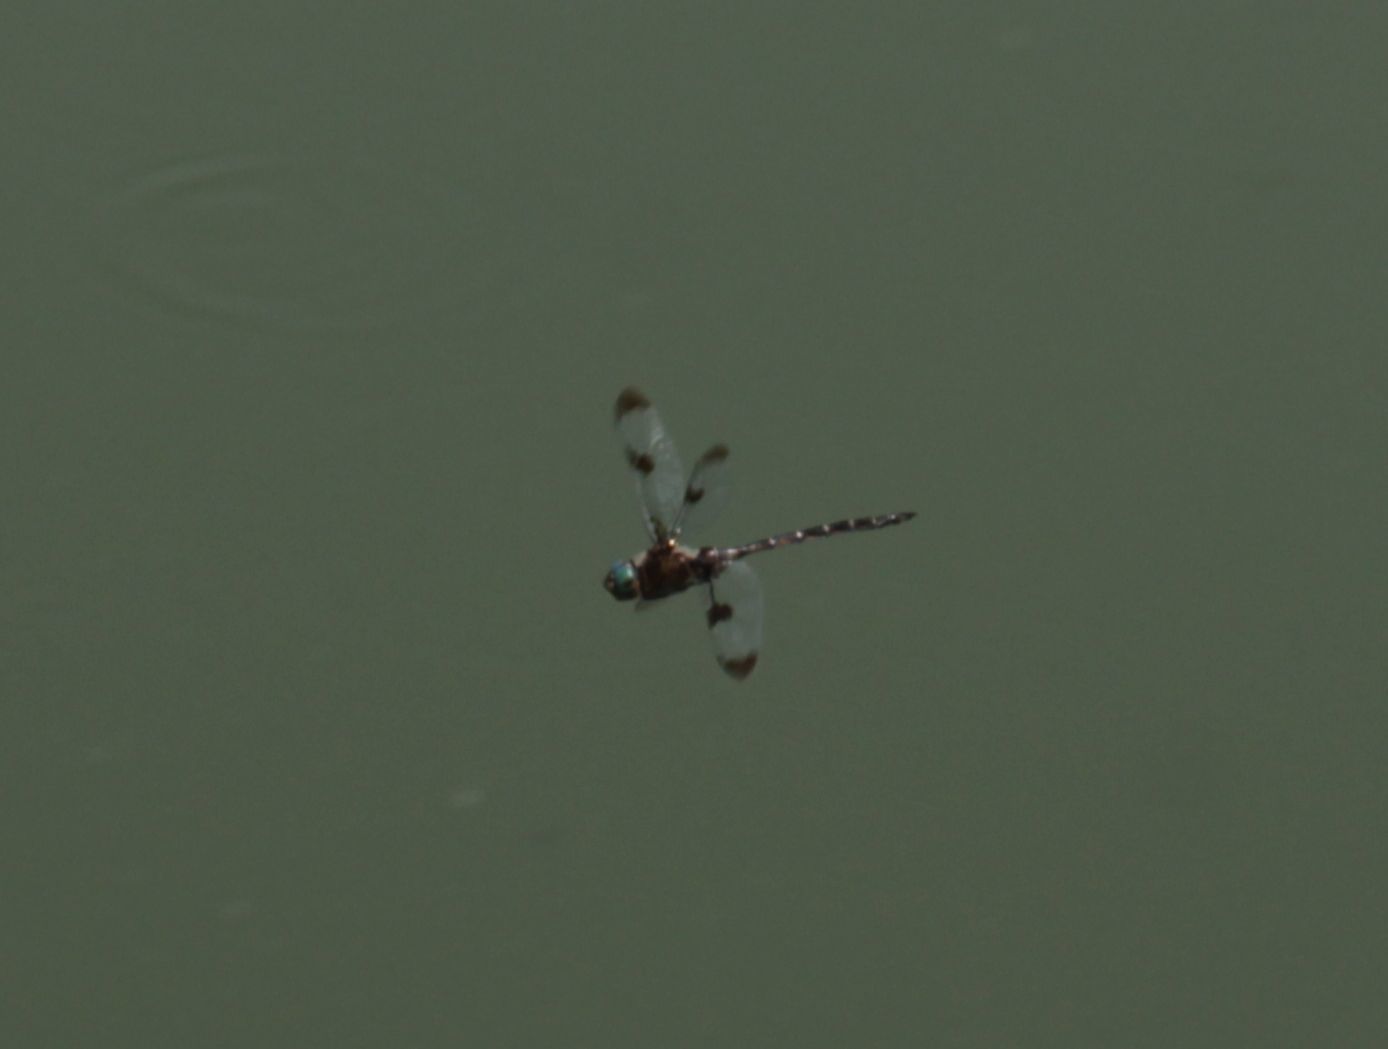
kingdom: Animalia
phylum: Arthropoda
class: Insecta
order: Odonata
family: Corduliidae
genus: Epitheca
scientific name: Epitheca princeps
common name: Prince baskettail
